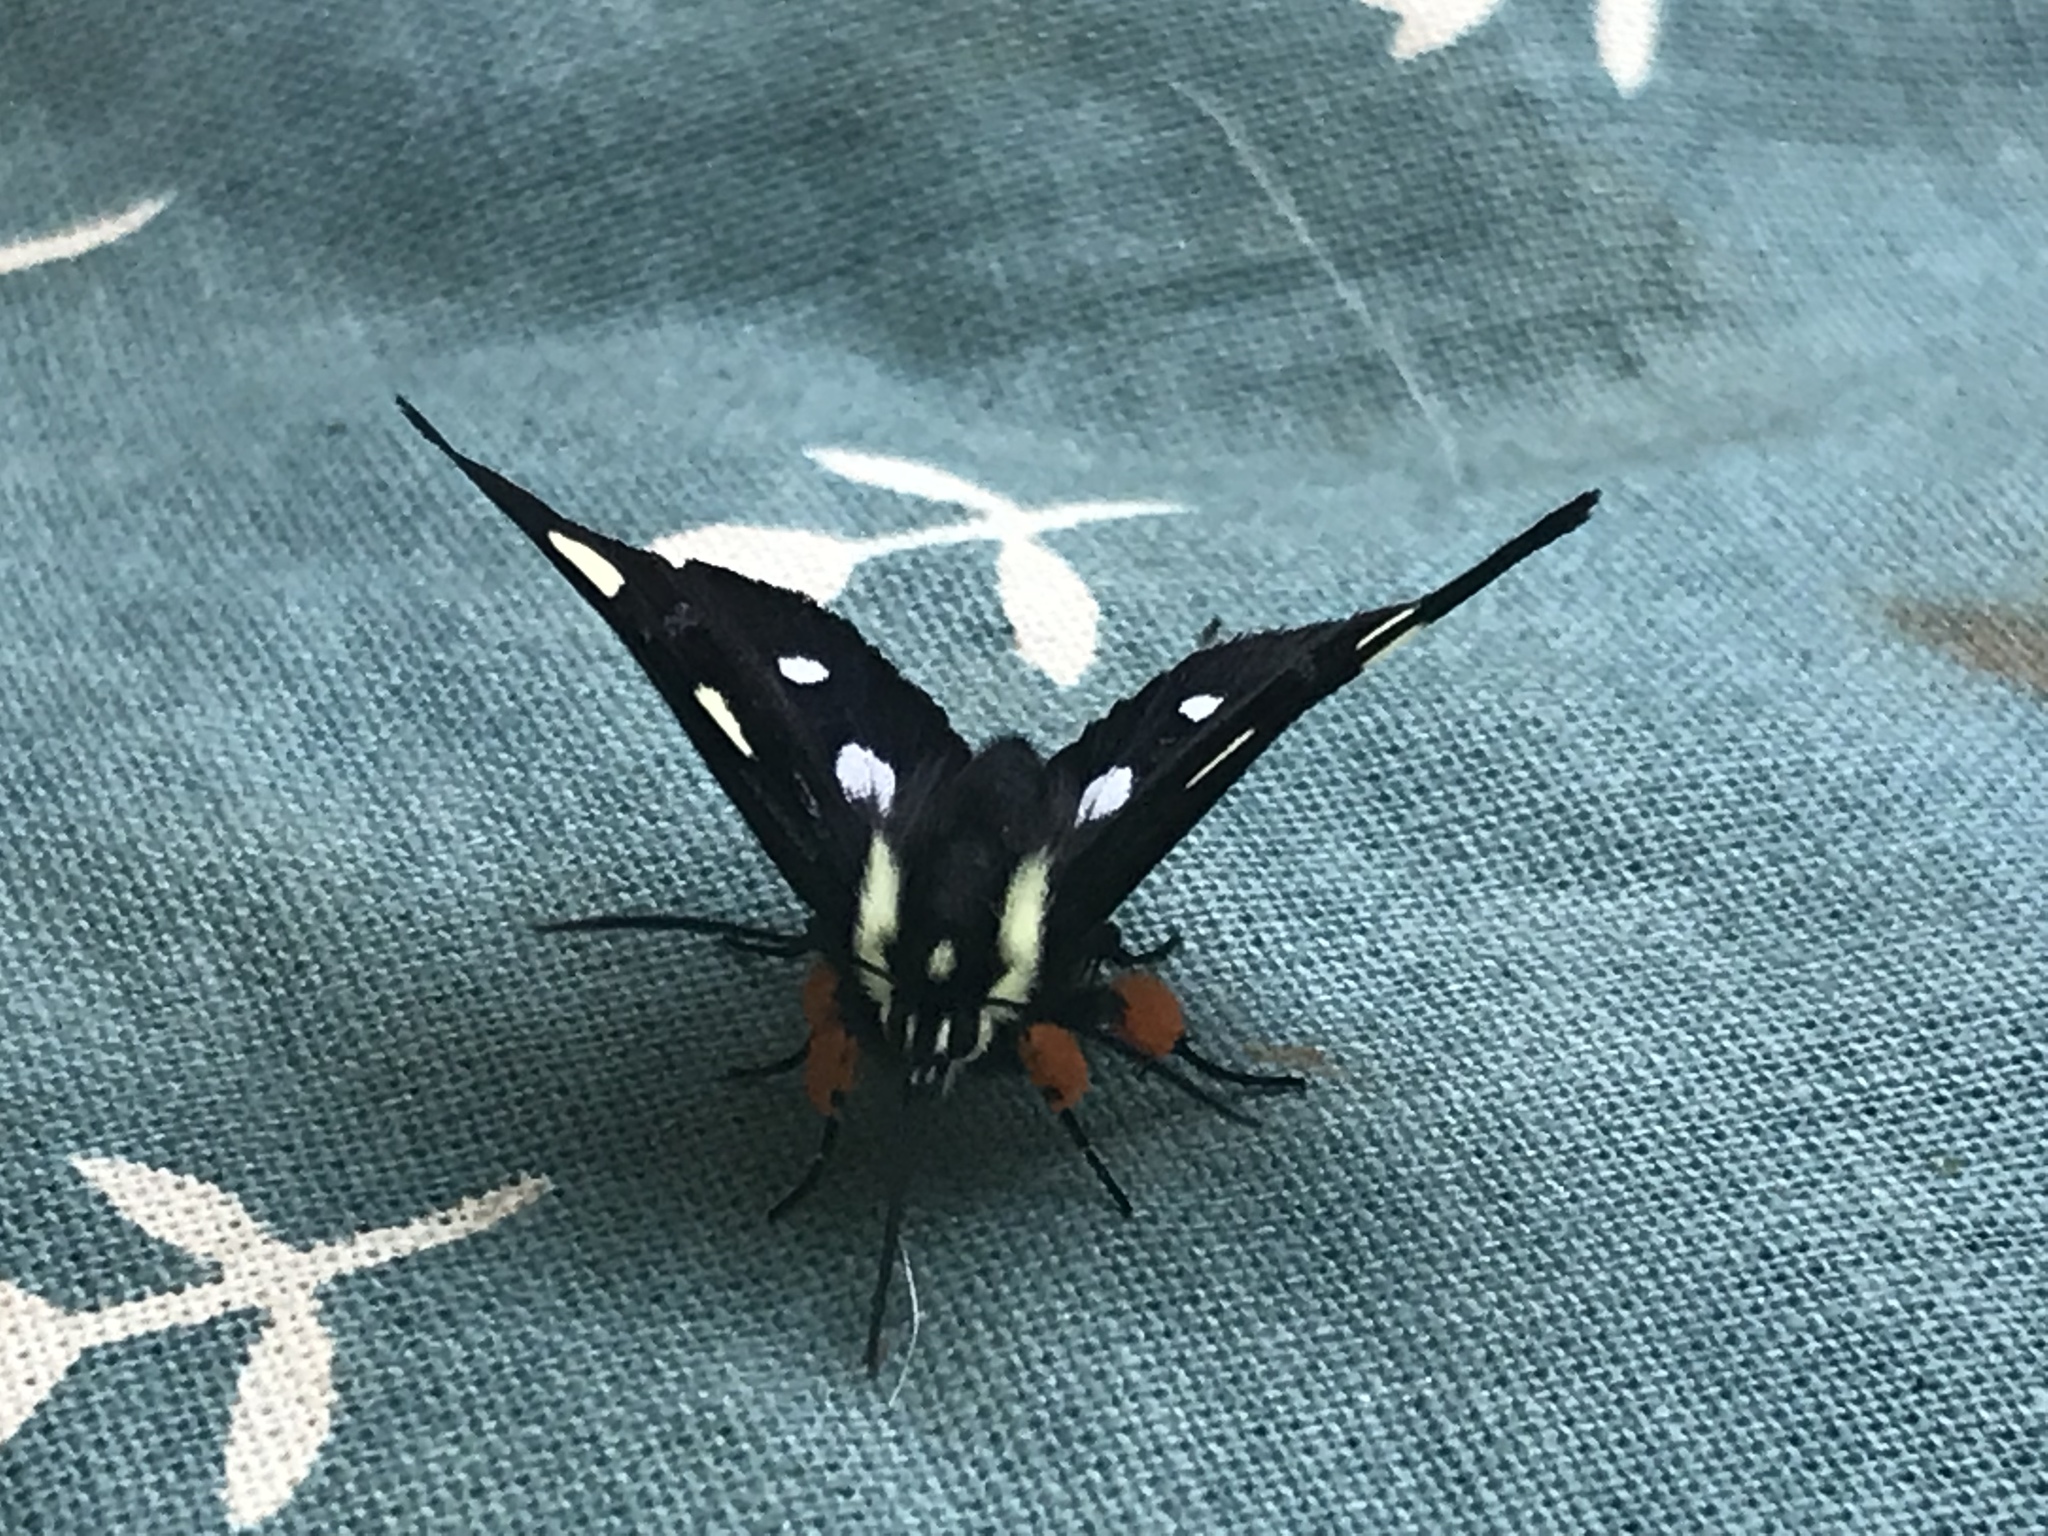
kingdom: Animalia
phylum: Arthropoda
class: Insecta
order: Lepidoptera
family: Noctuidae
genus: Alypia
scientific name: Alypia octomaculata
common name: Eight-spotted forester
